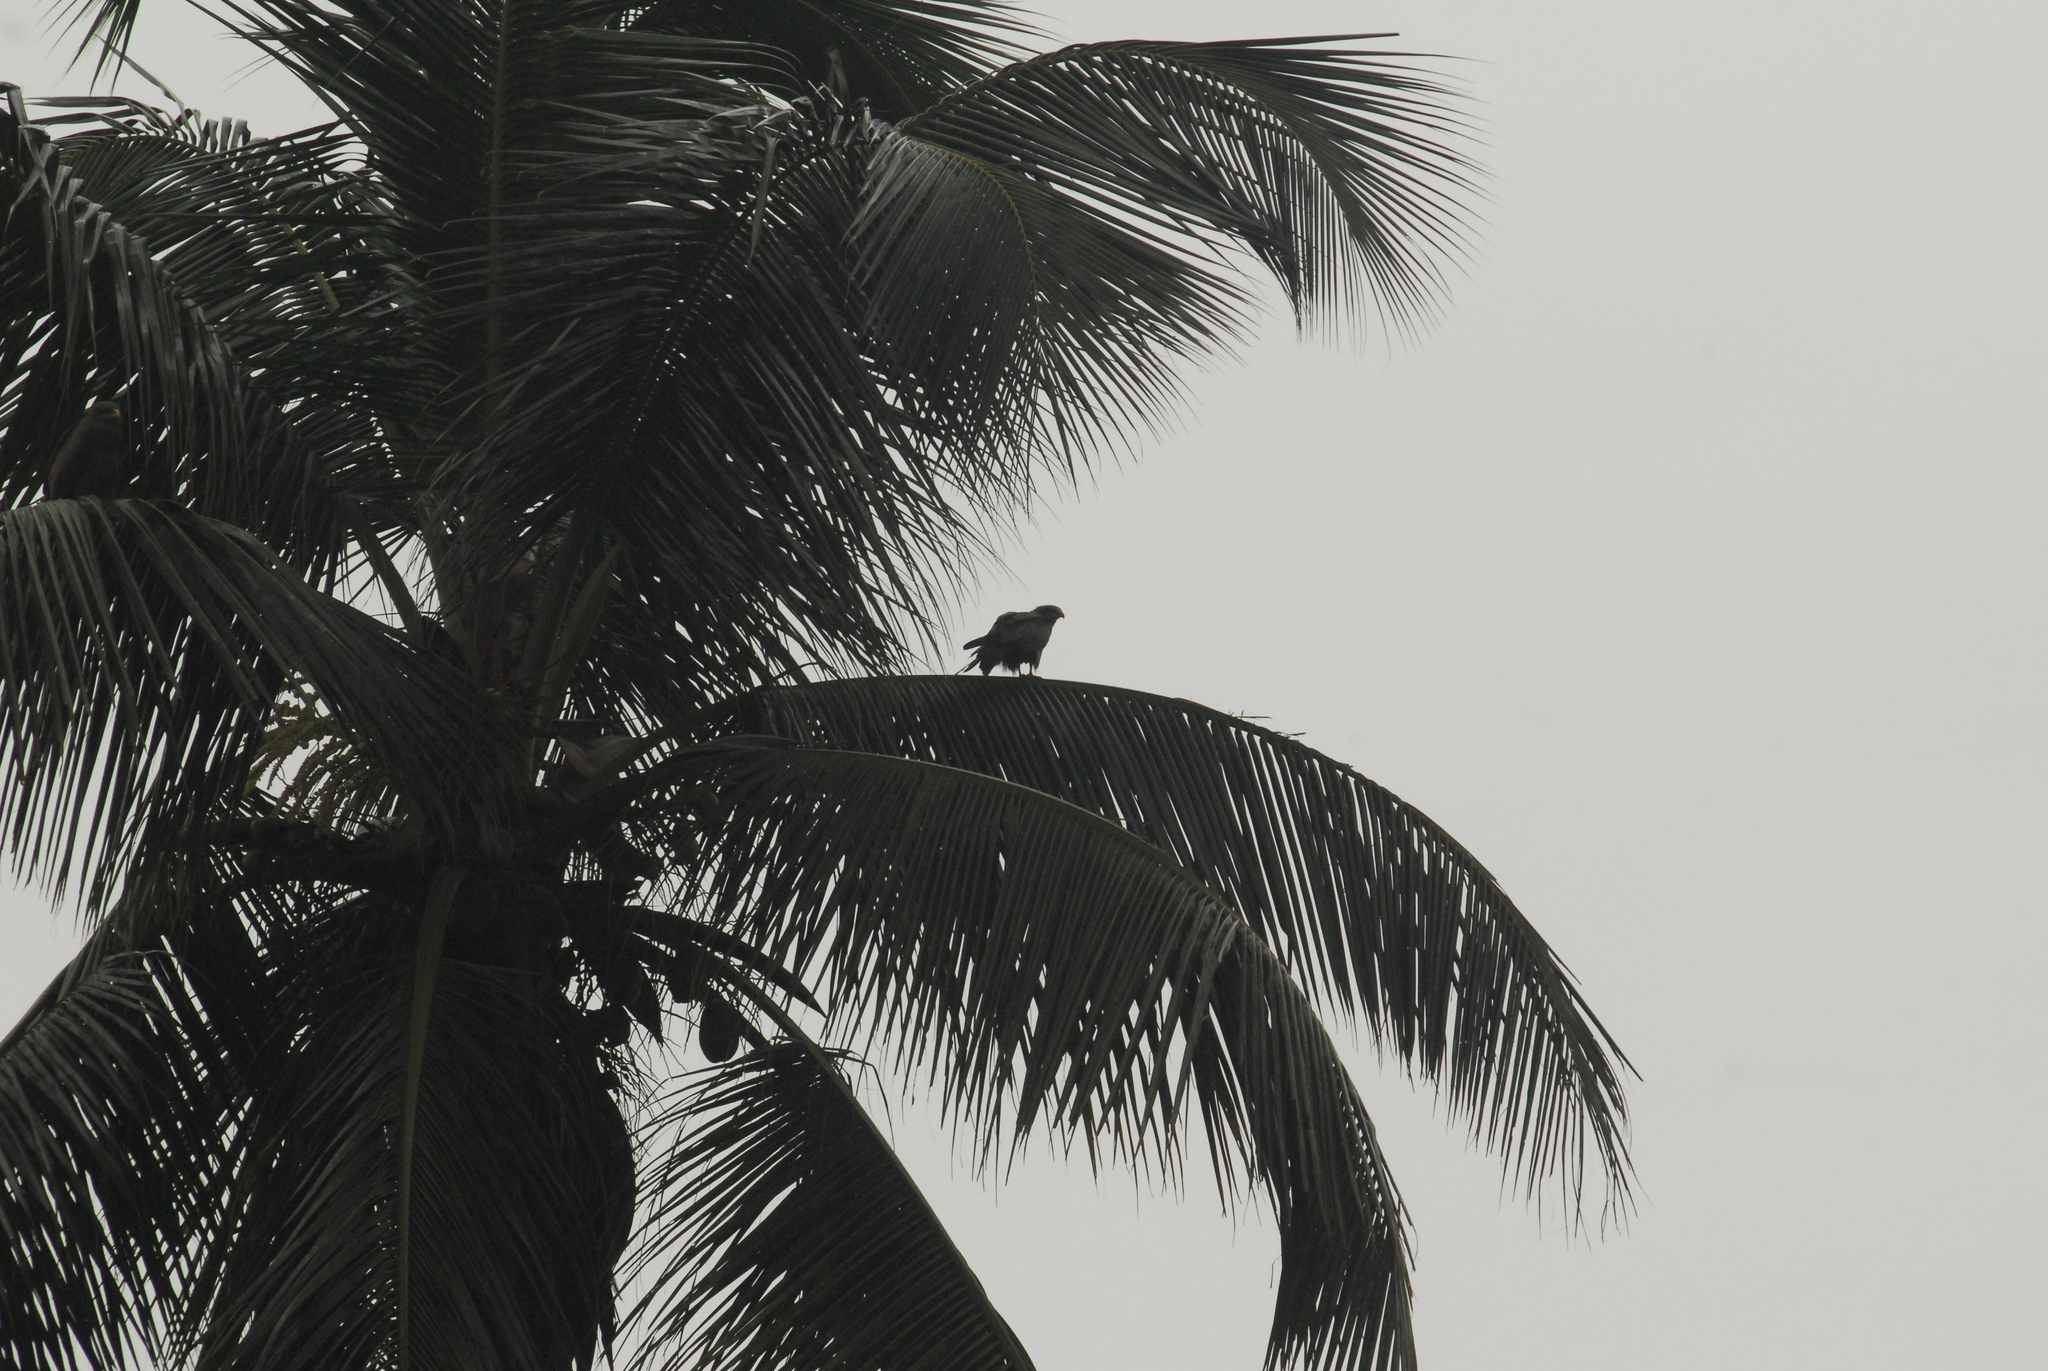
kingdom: Animalia
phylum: Chordata
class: Aves
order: Accipitriformes
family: Accipitridae
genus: Milvus
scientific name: Milvus migrans
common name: Black kite
